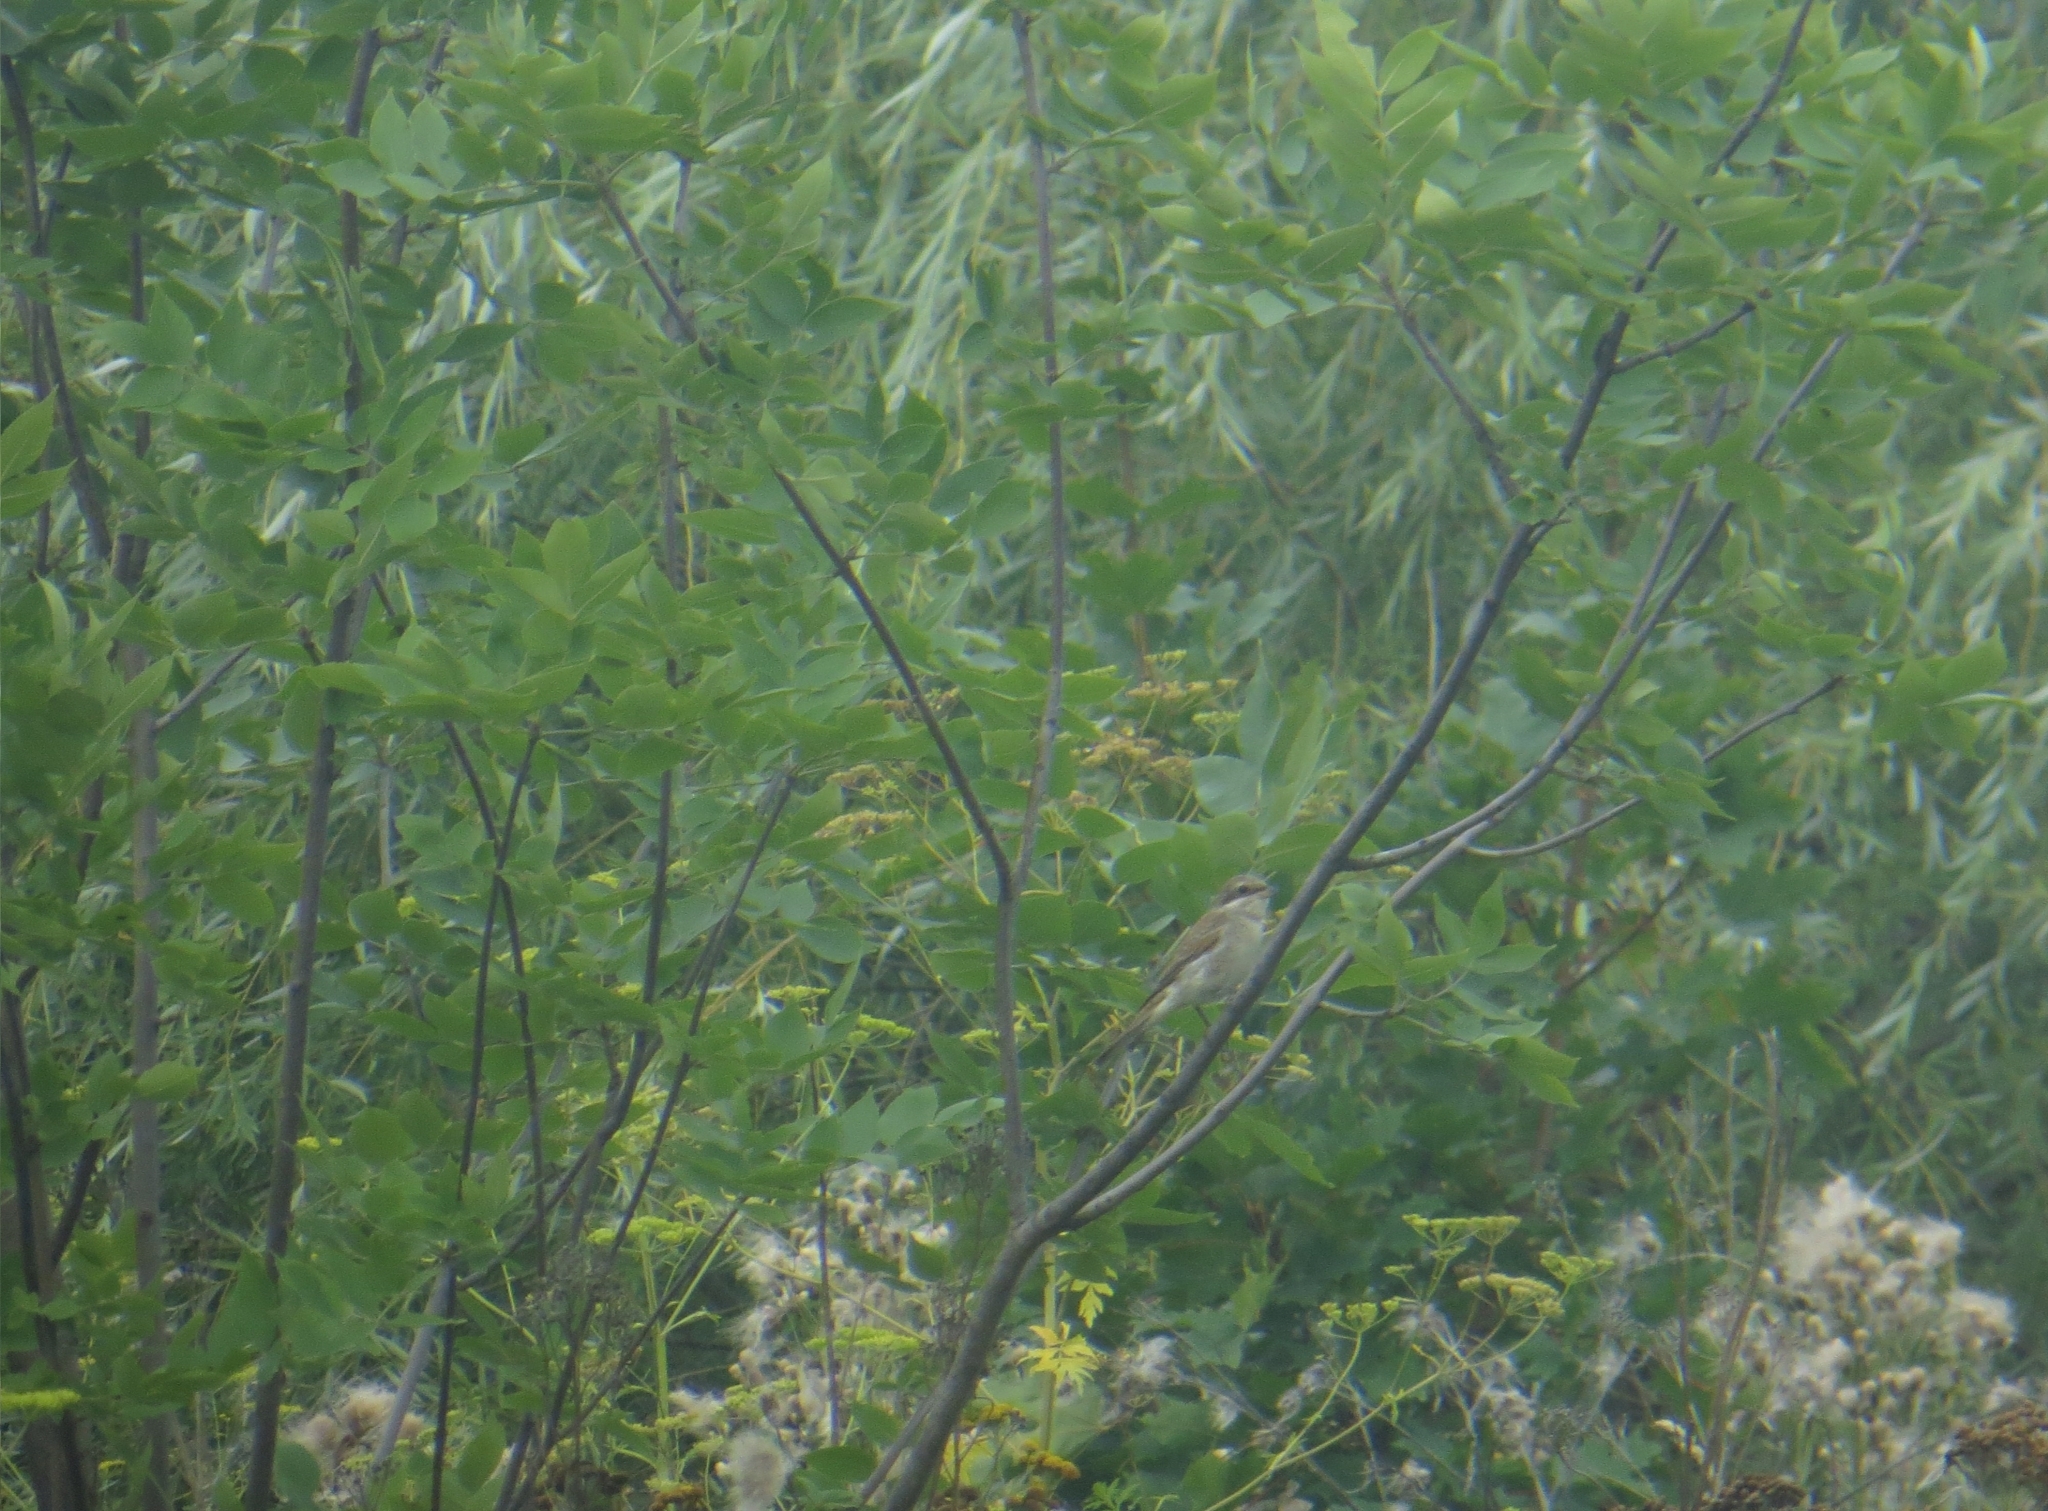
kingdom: Animalia
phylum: Chordata
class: Aves
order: Passeriformes
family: Laniidae
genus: Lanius
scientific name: Lanius collurio
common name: Red-backed shrike
